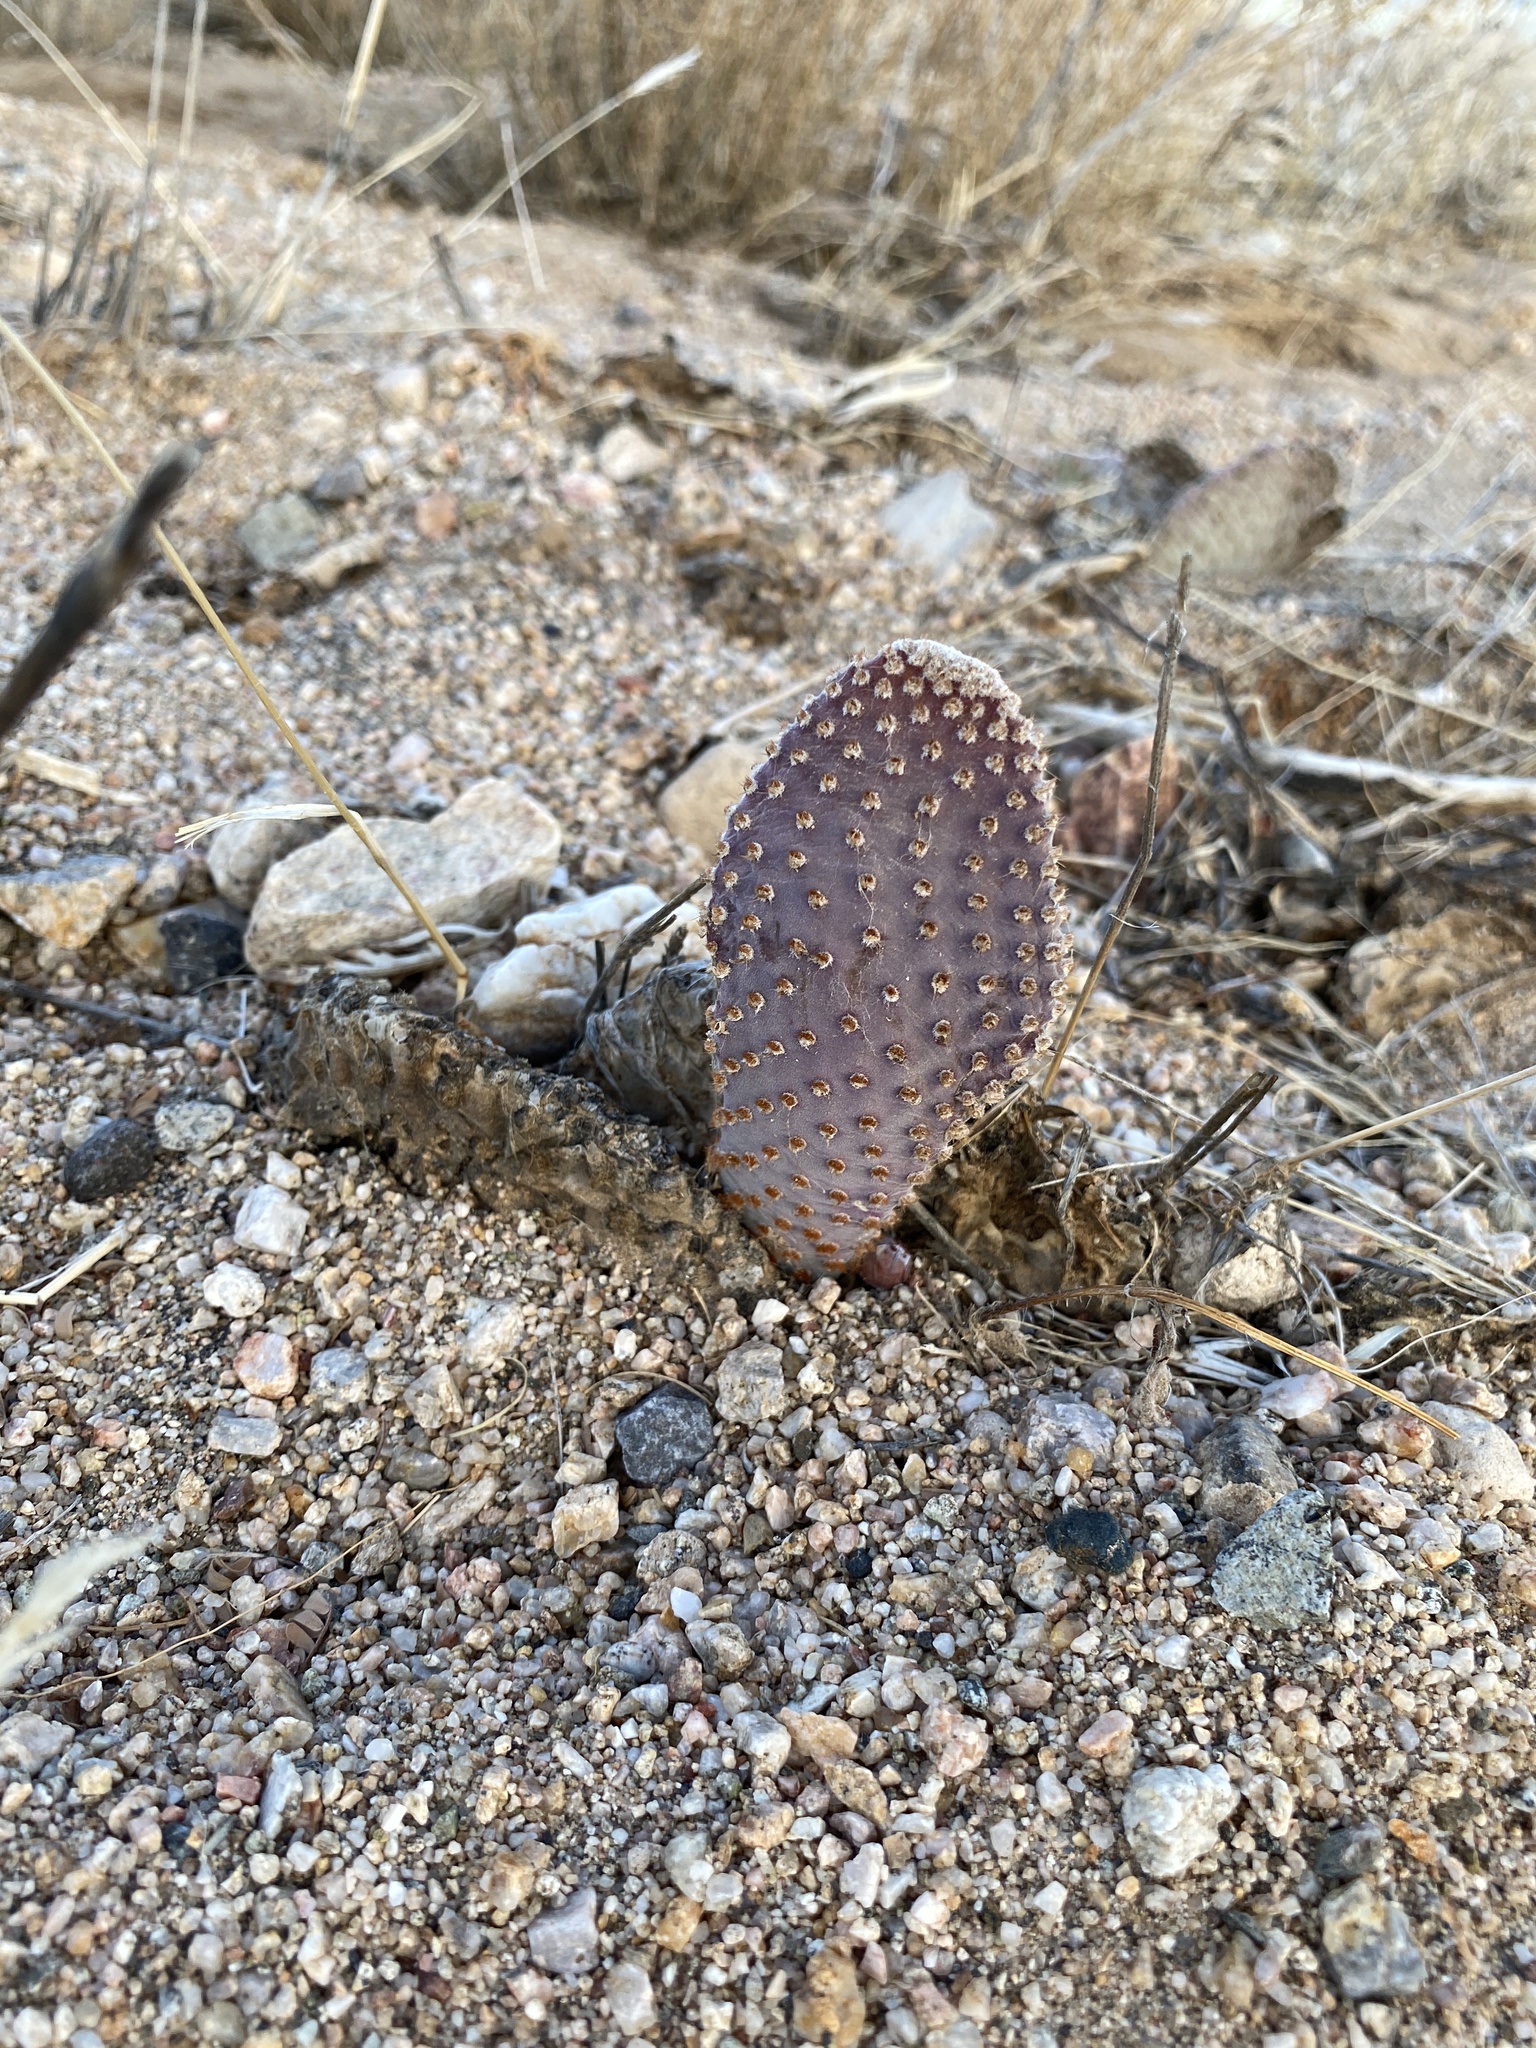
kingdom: Plantae
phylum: Tracheophyta
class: Magnoliopsida
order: Caryophyllales
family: Cactaceae
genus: Opuntia
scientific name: Opuntia basilaris
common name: Beavertail prickly-pear
